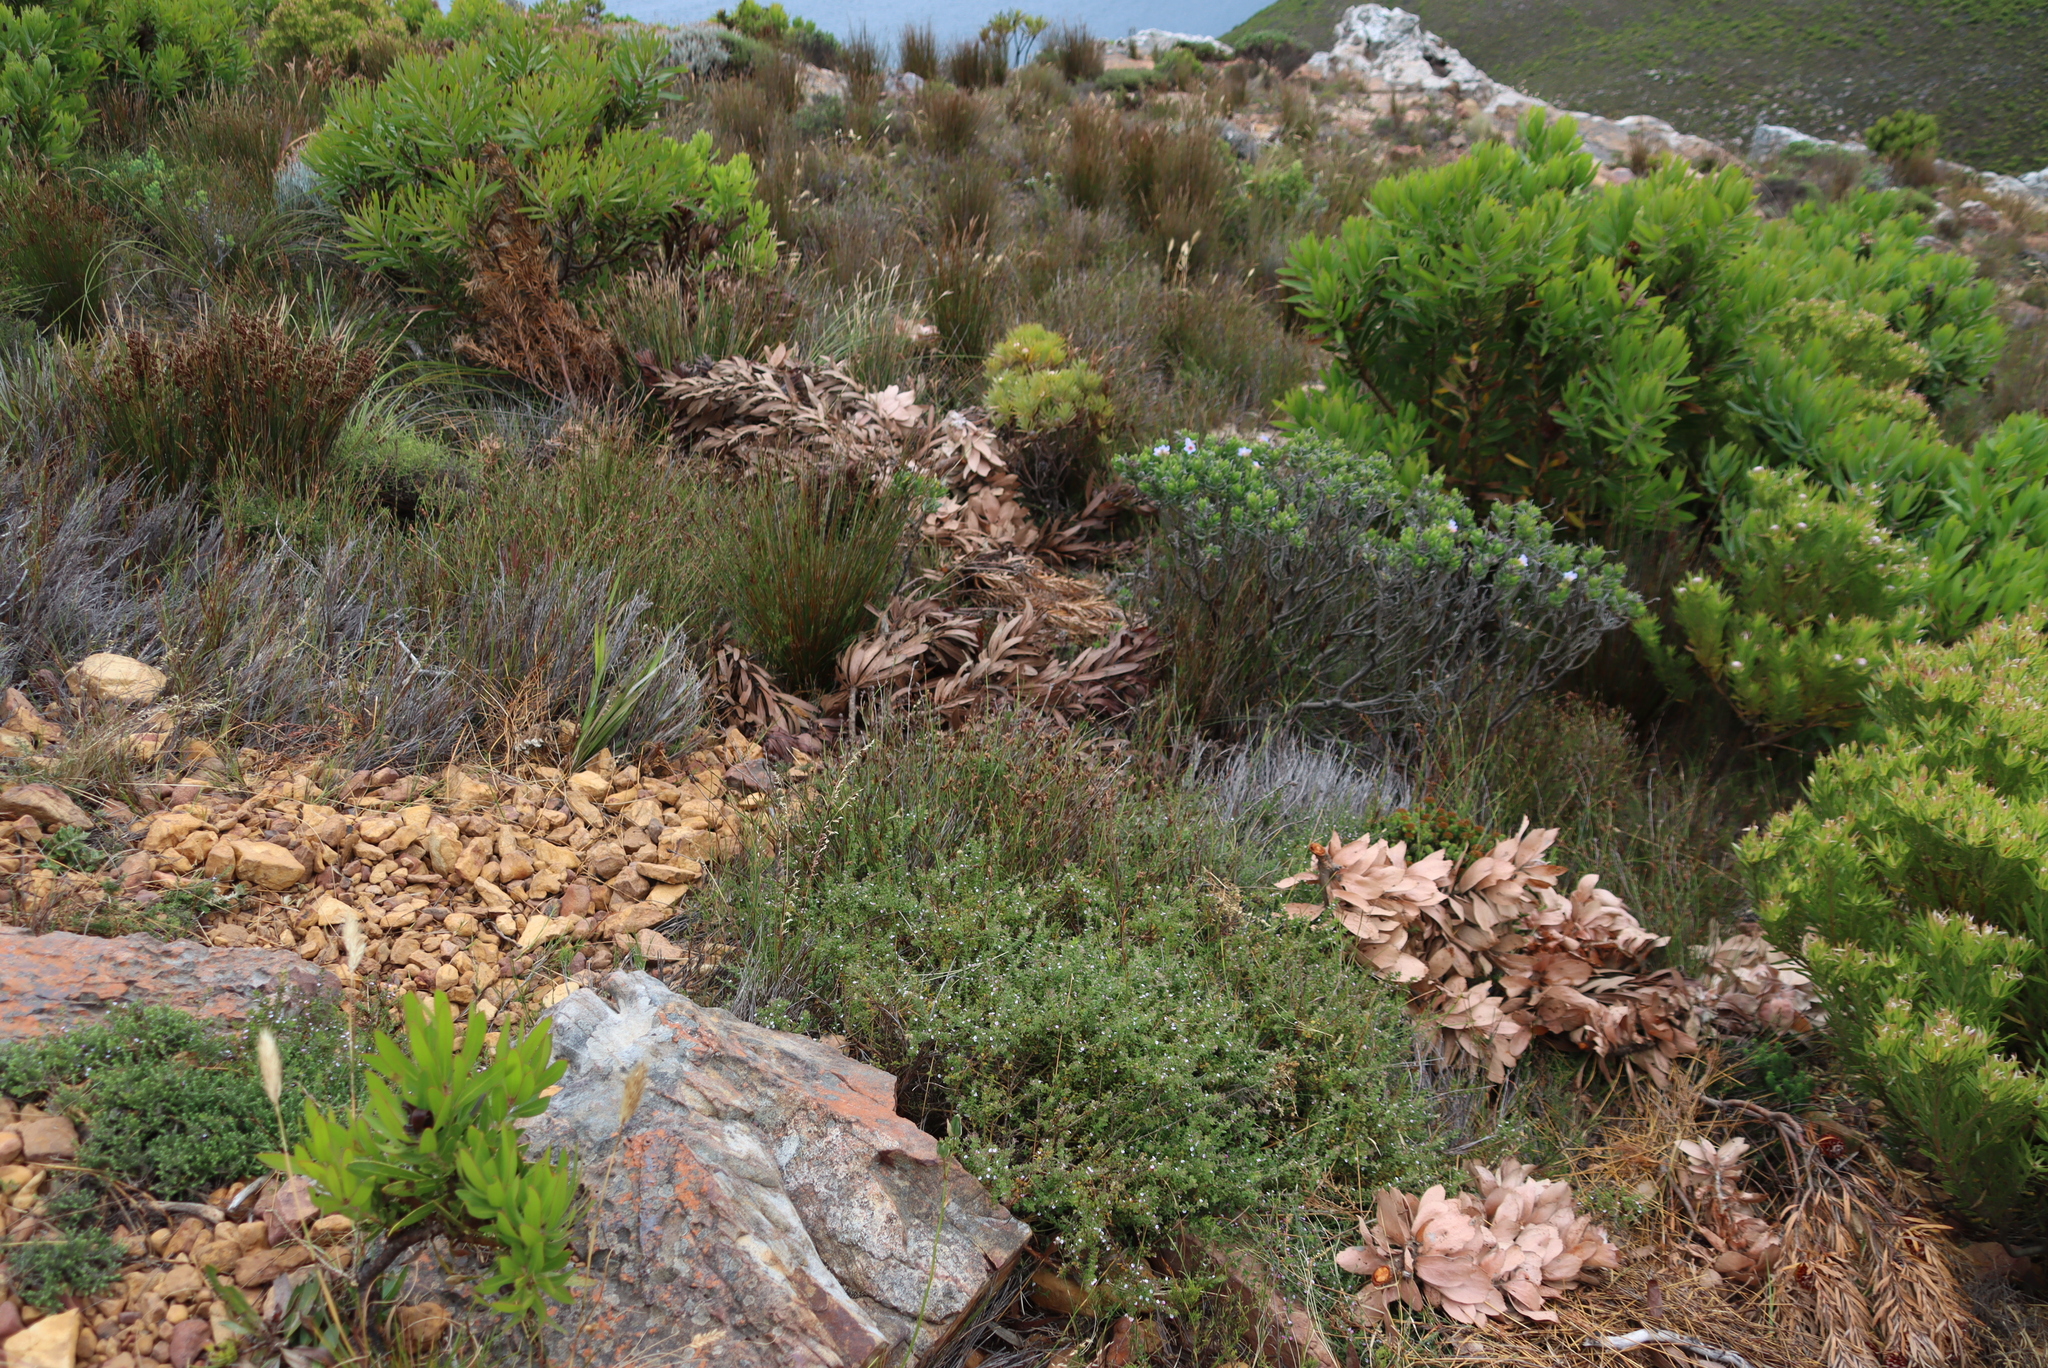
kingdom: Plantae
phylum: Tracheophyta
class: Magnoliopsida
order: Boraginales
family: Boraginaceae
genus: Lobostemon
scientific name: Lobostemon fruticosus
